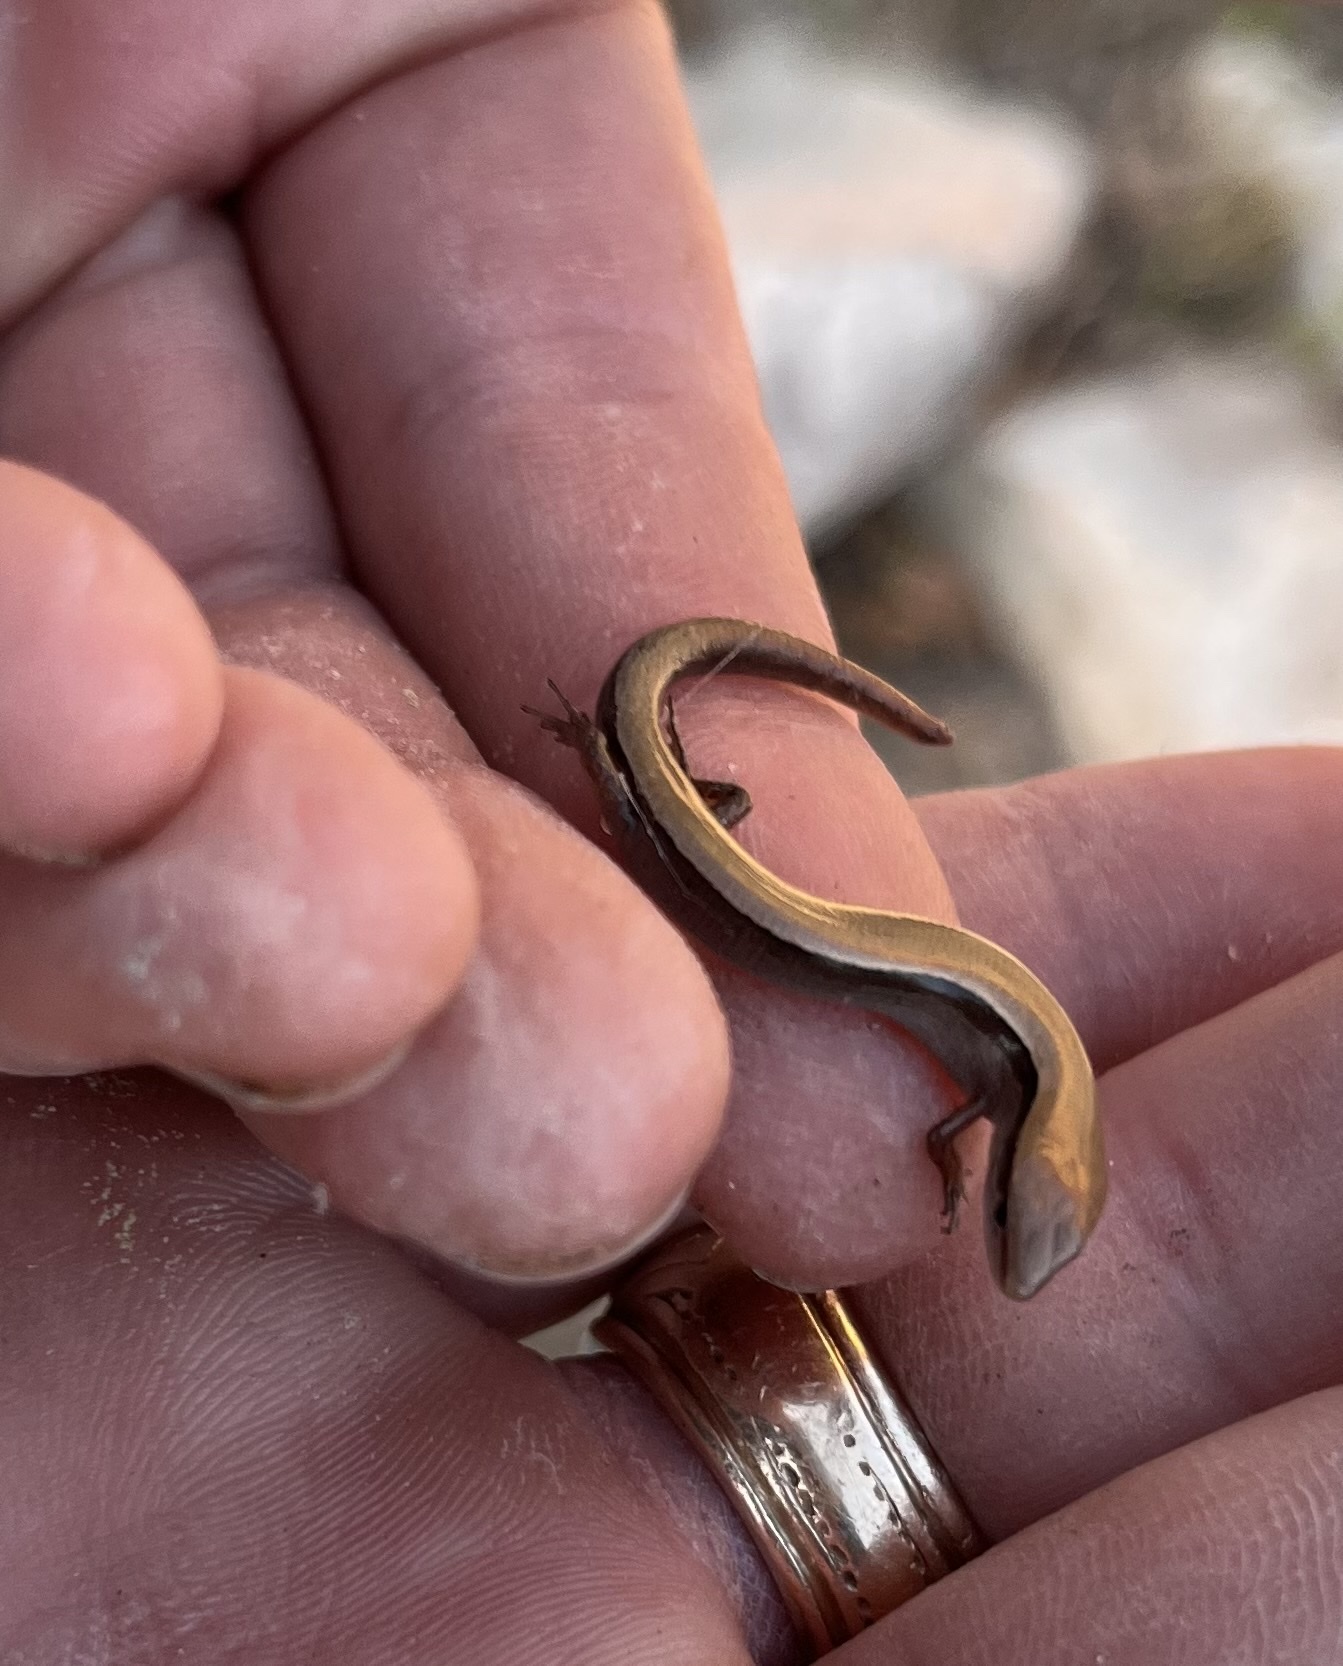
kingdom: Animalia
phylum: Chordata
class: Squamata
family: Scincidae
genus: Scincella
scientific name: Scincella lateralis
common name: Ground skink
